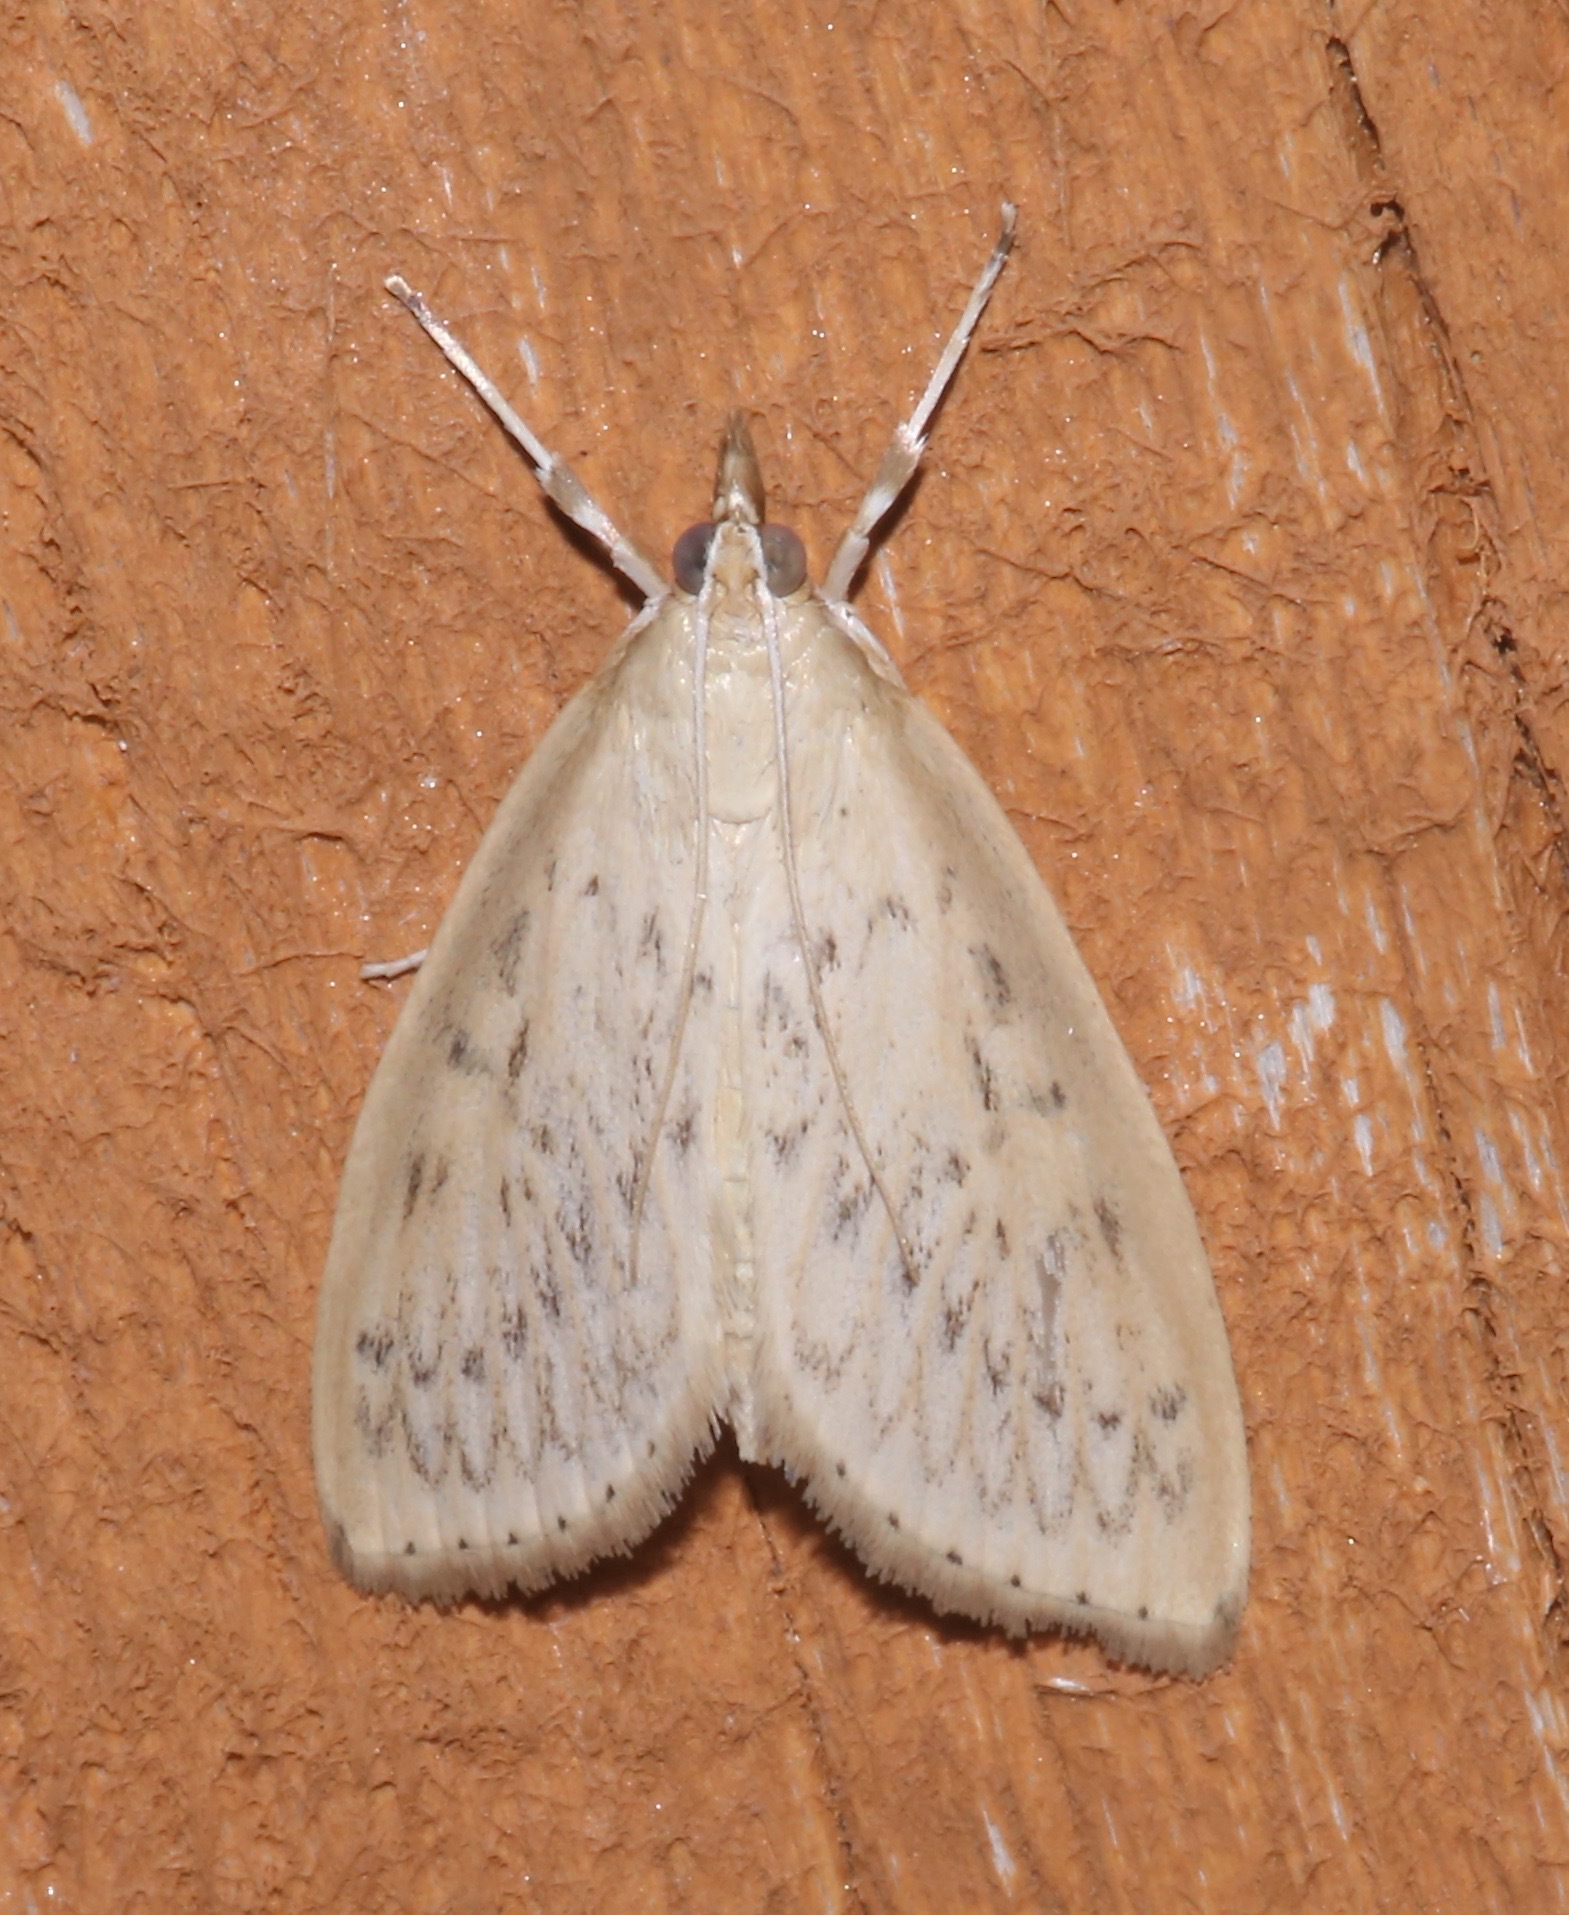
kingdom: Animalia
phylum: Arthropoda
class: Insecta
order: Lepidoptera
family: Crambidae
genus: Crocidophora
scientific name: Crocidophora pustuliferalis
